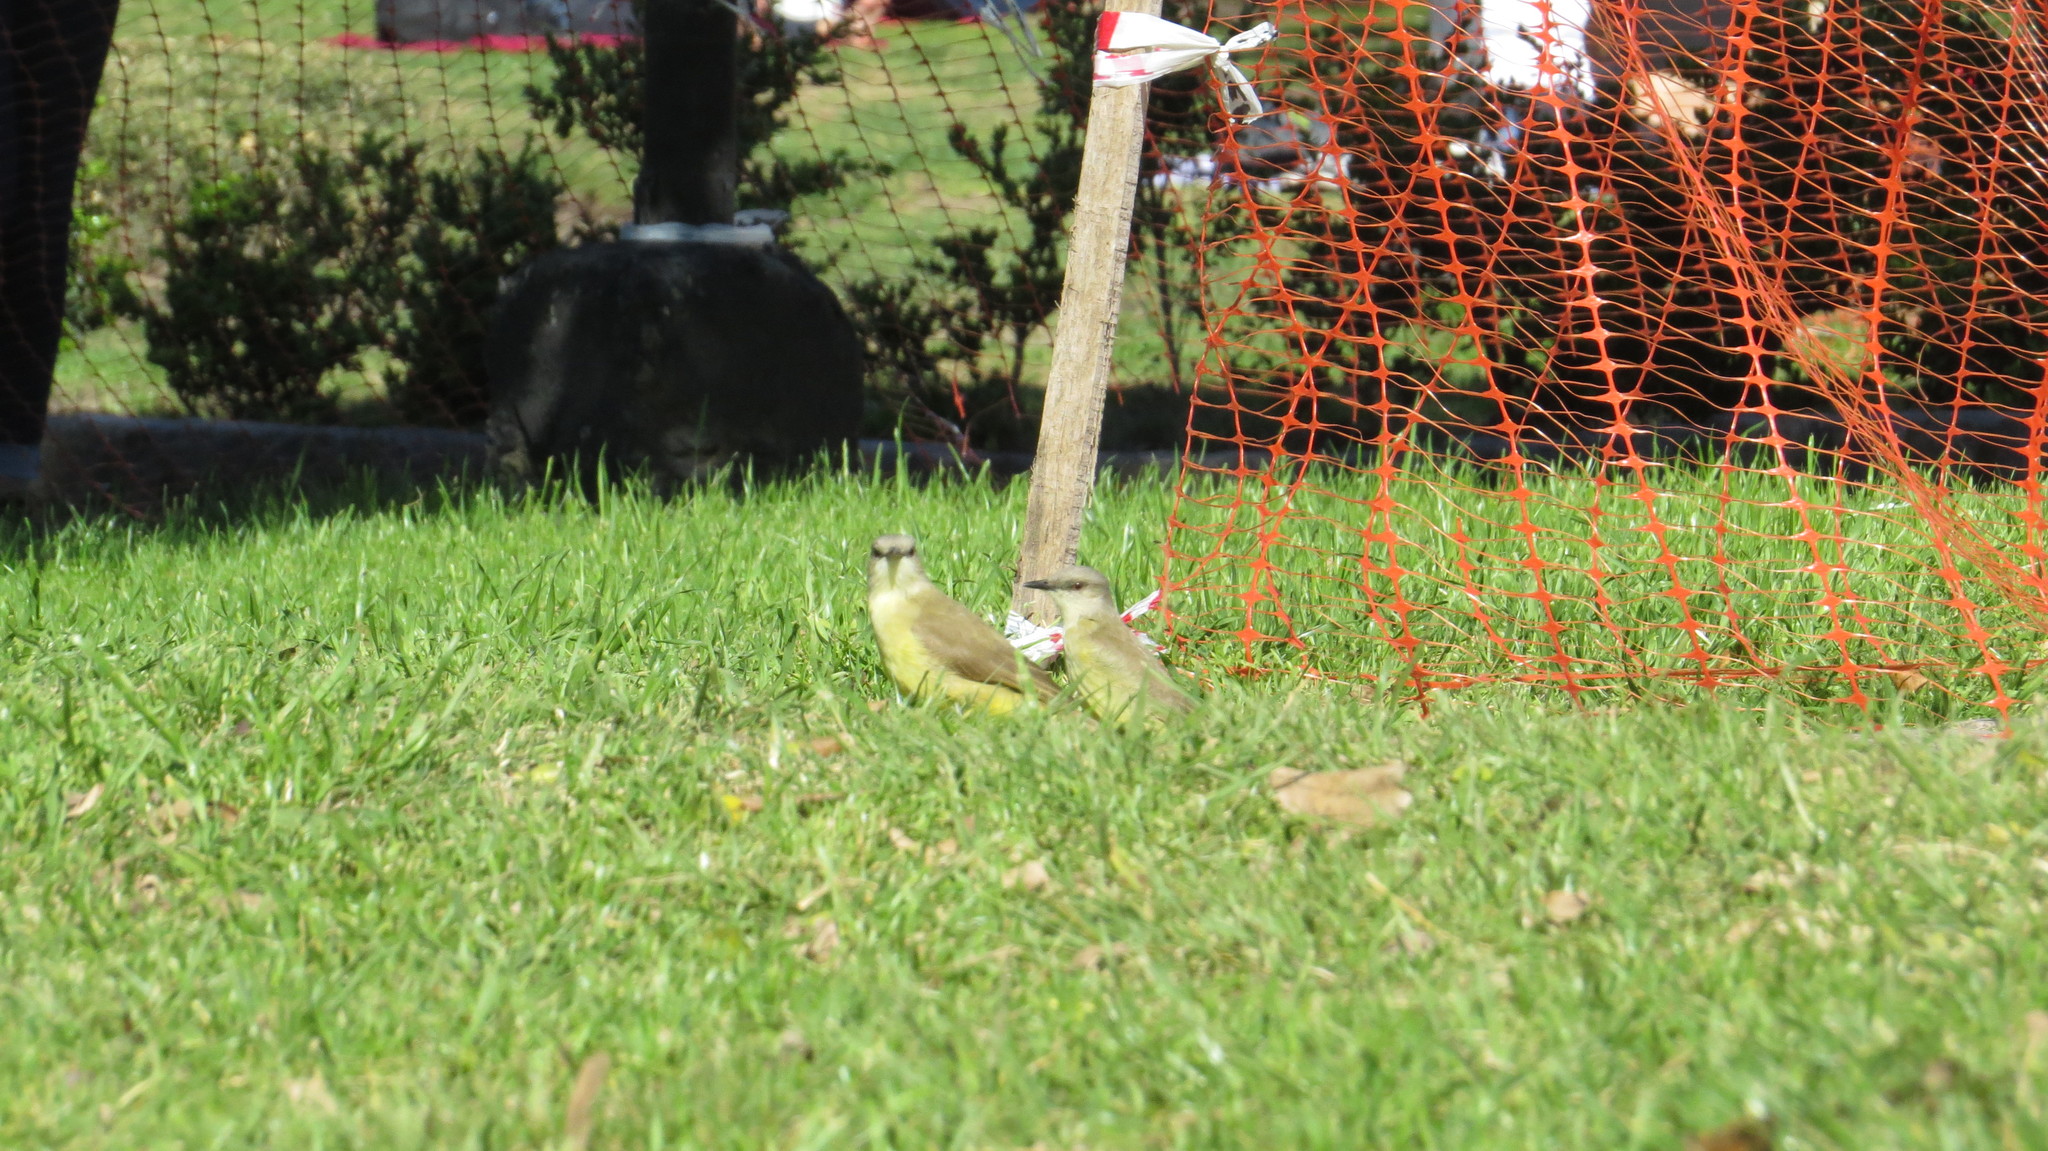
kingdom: Animalia
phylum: Chordata
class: Aves
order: Passeriformes
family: Tyrannidae
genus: Machetornis
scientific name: Machetornis rixosa
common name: Cattle tyrant
